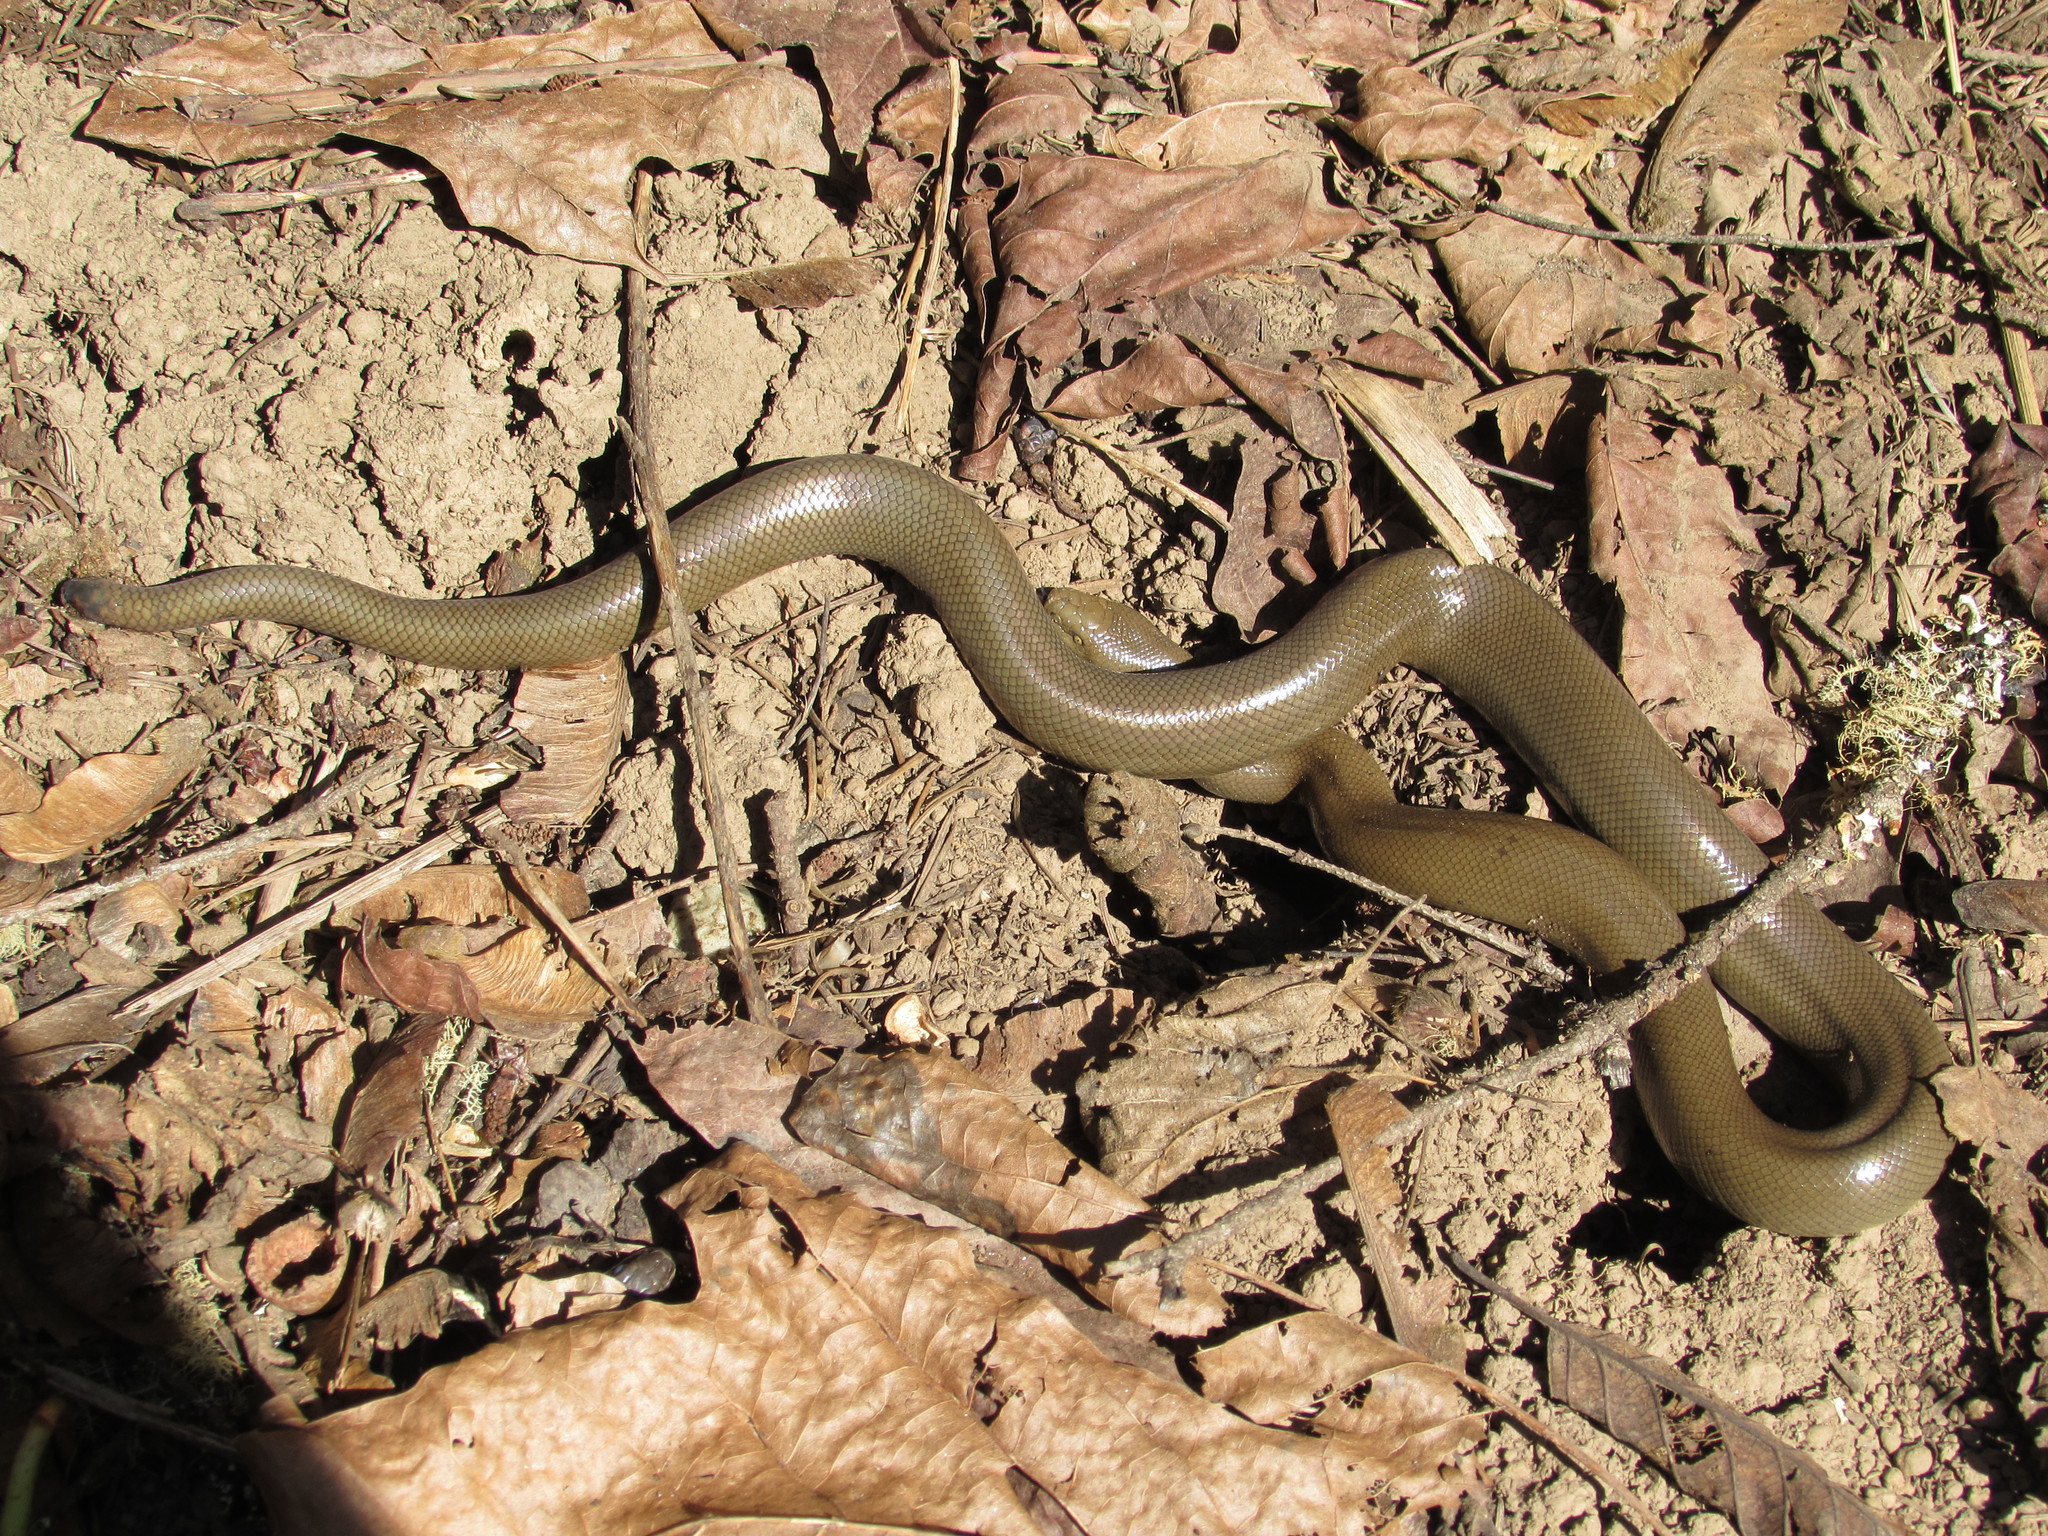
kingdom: Animalia
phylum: Chordata
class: Squamata
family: Boidae
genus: Charina
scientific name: Charina bottae
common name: Northern rubber boa
